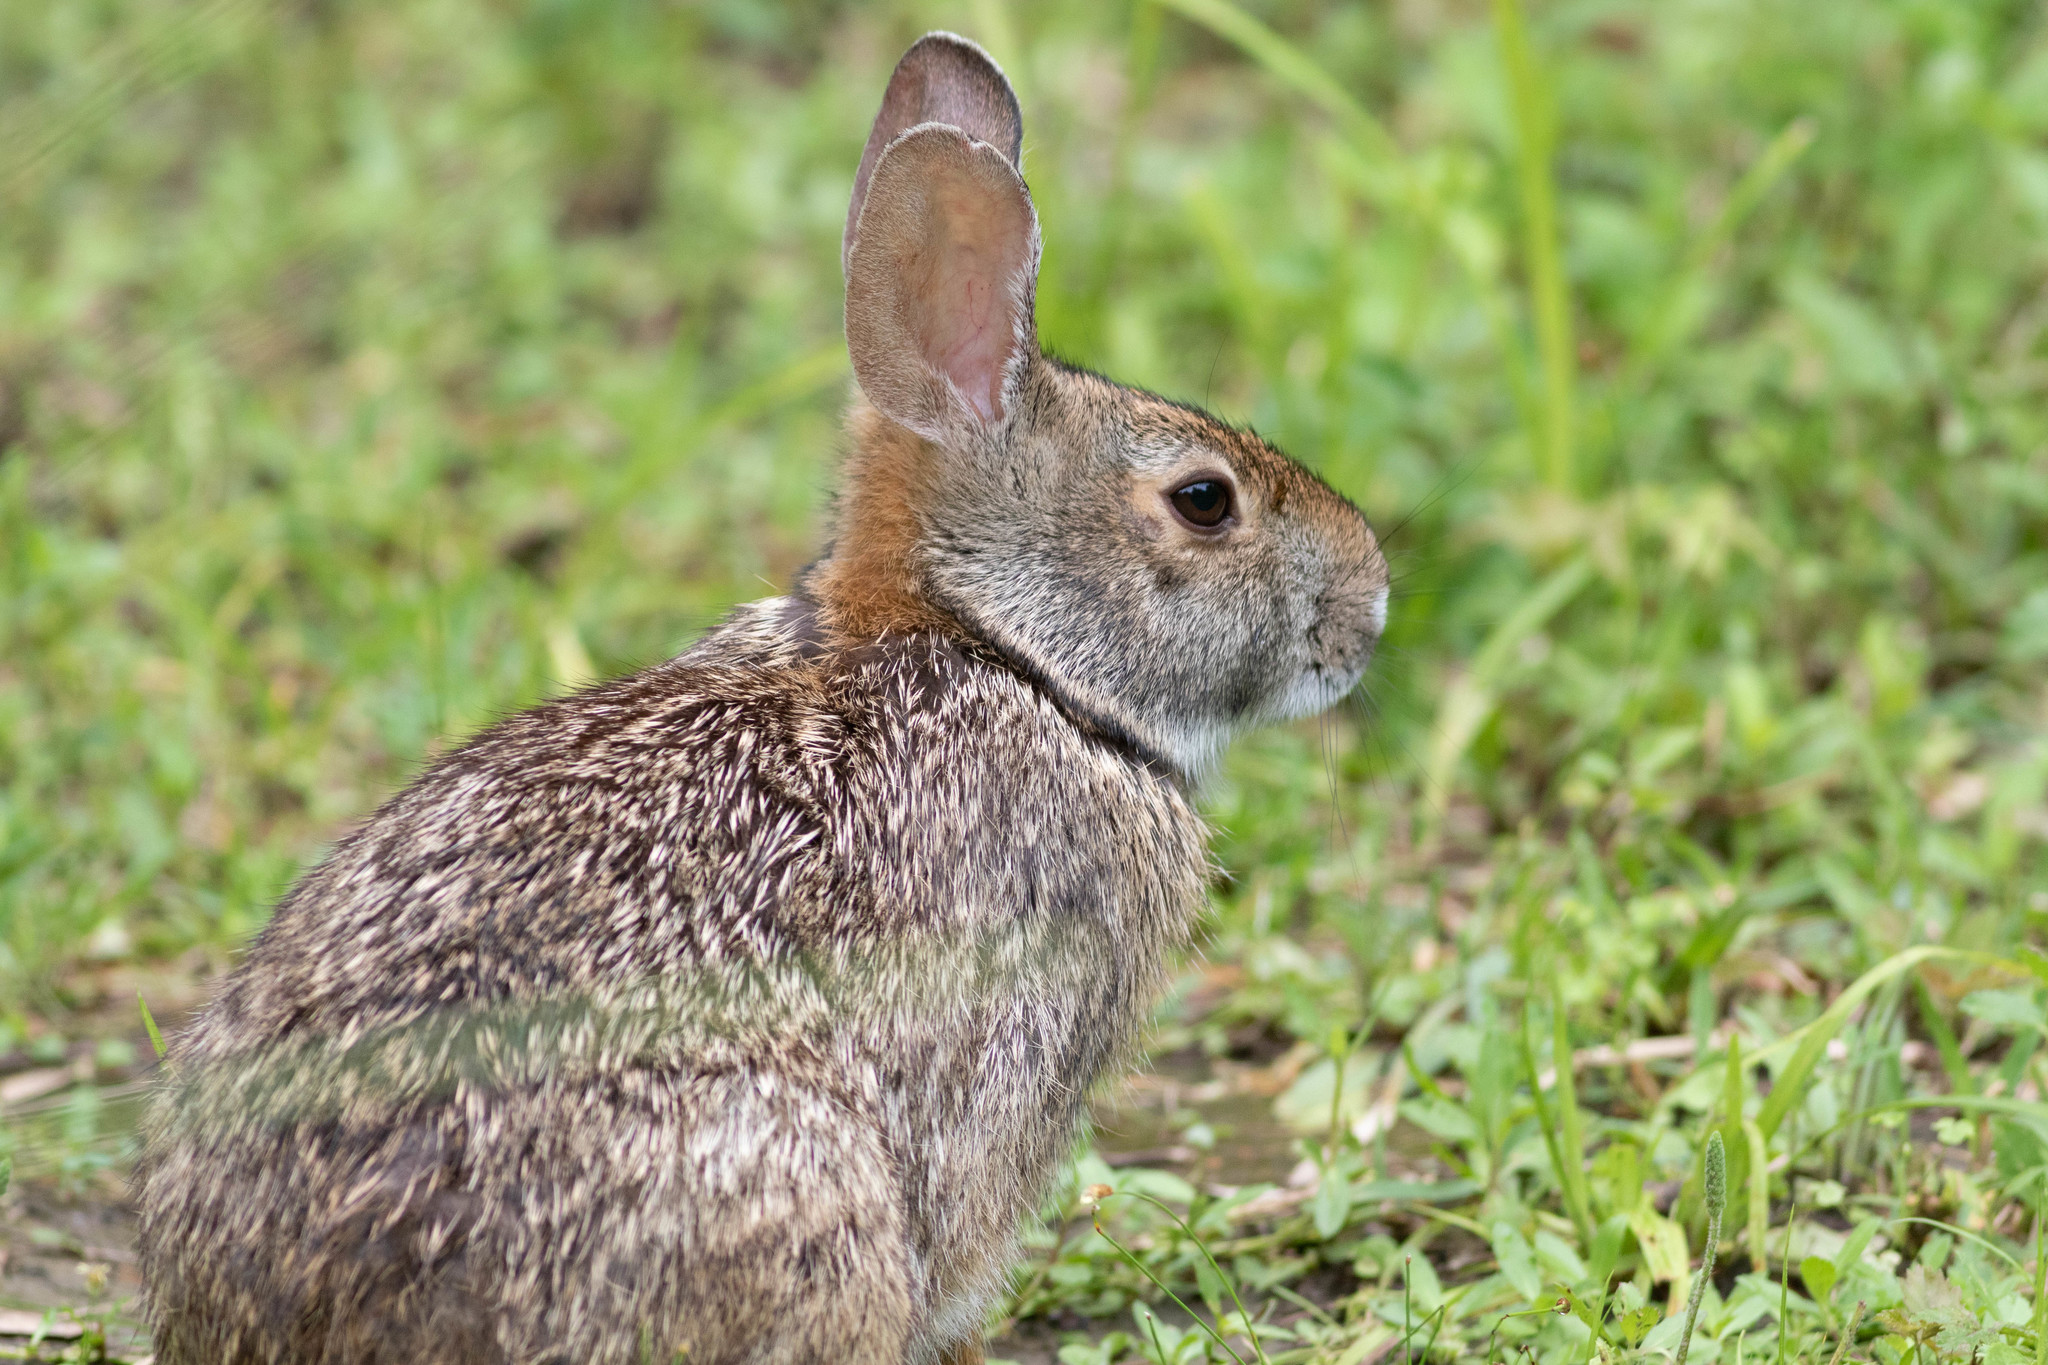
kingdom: Animalia
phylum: Chordata
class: Mammalia
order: Lagomorpha
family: Leporidae
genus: Sylvilagus
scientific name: Sylvilagus aquaticus
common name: Swamp rabbit
